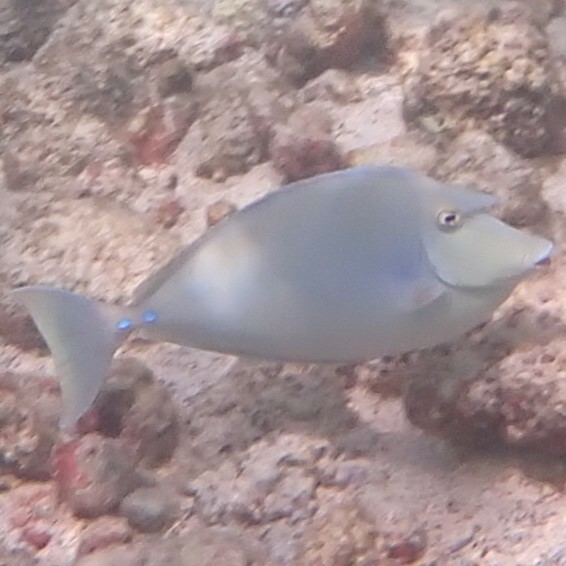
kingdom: Animalia
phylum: Chordata
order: Perciformes
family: Acanthuridae
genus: Naso
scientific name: Naso unicornis
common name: Bluespine unicornfish
